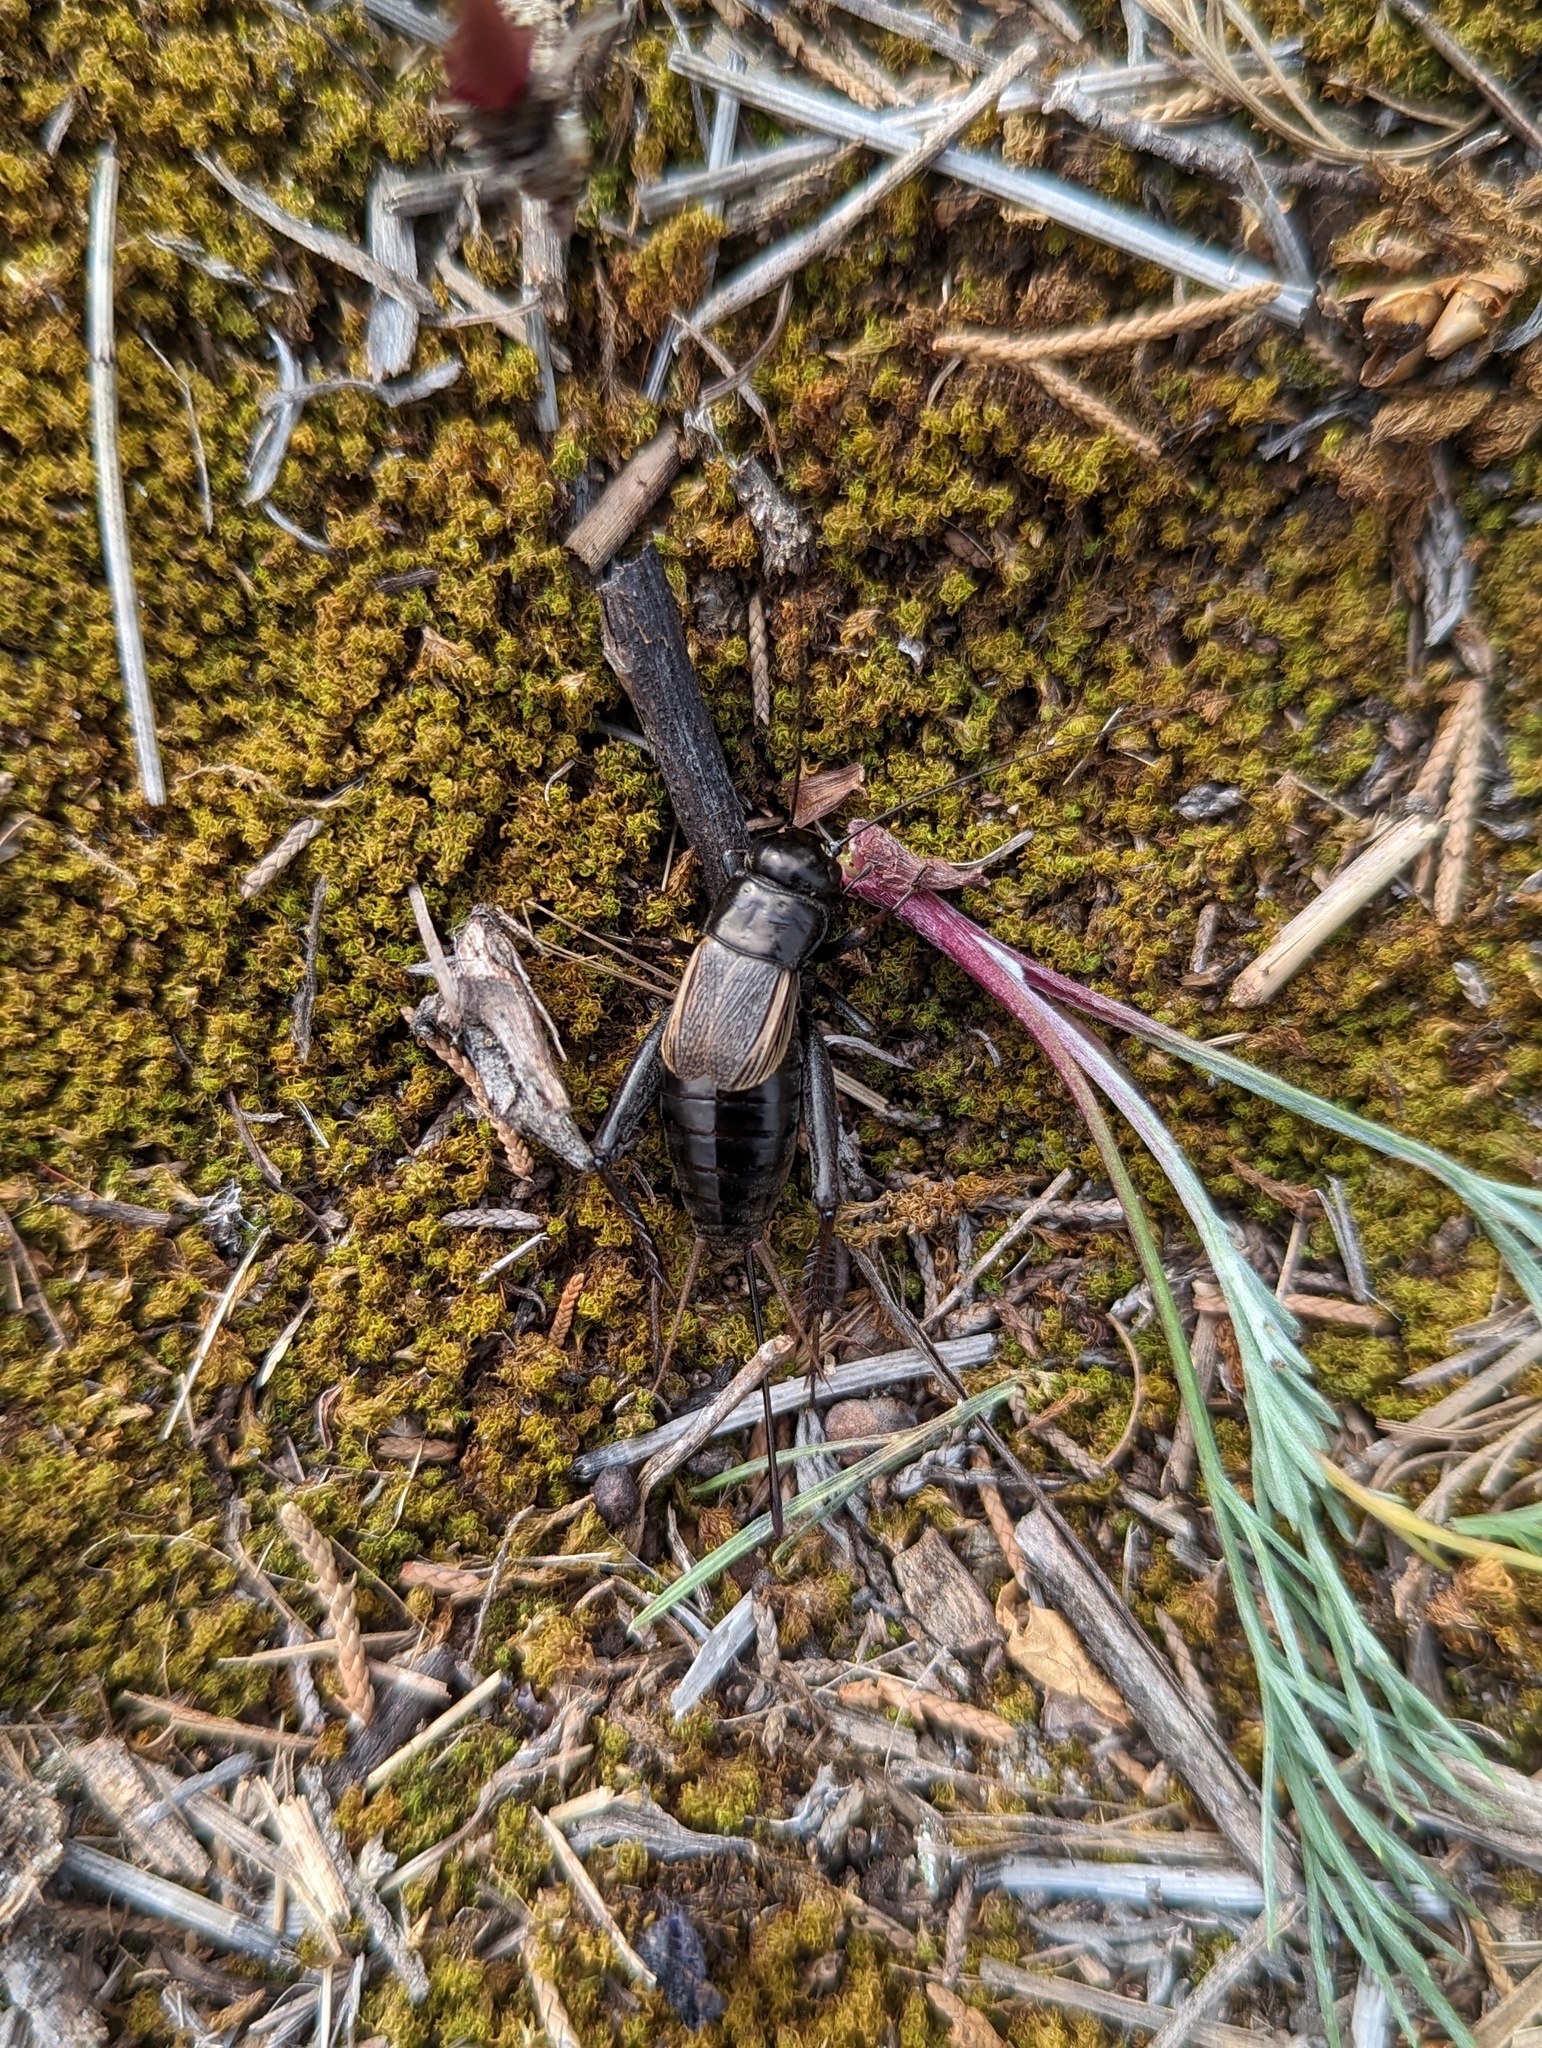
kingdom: Animalia
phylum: Arthropoda
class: Insecta
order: Orthoptera
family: Gryllidae
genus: Gryllus
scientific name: Gryllus pennsylvanicus
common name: Fall field cricket
